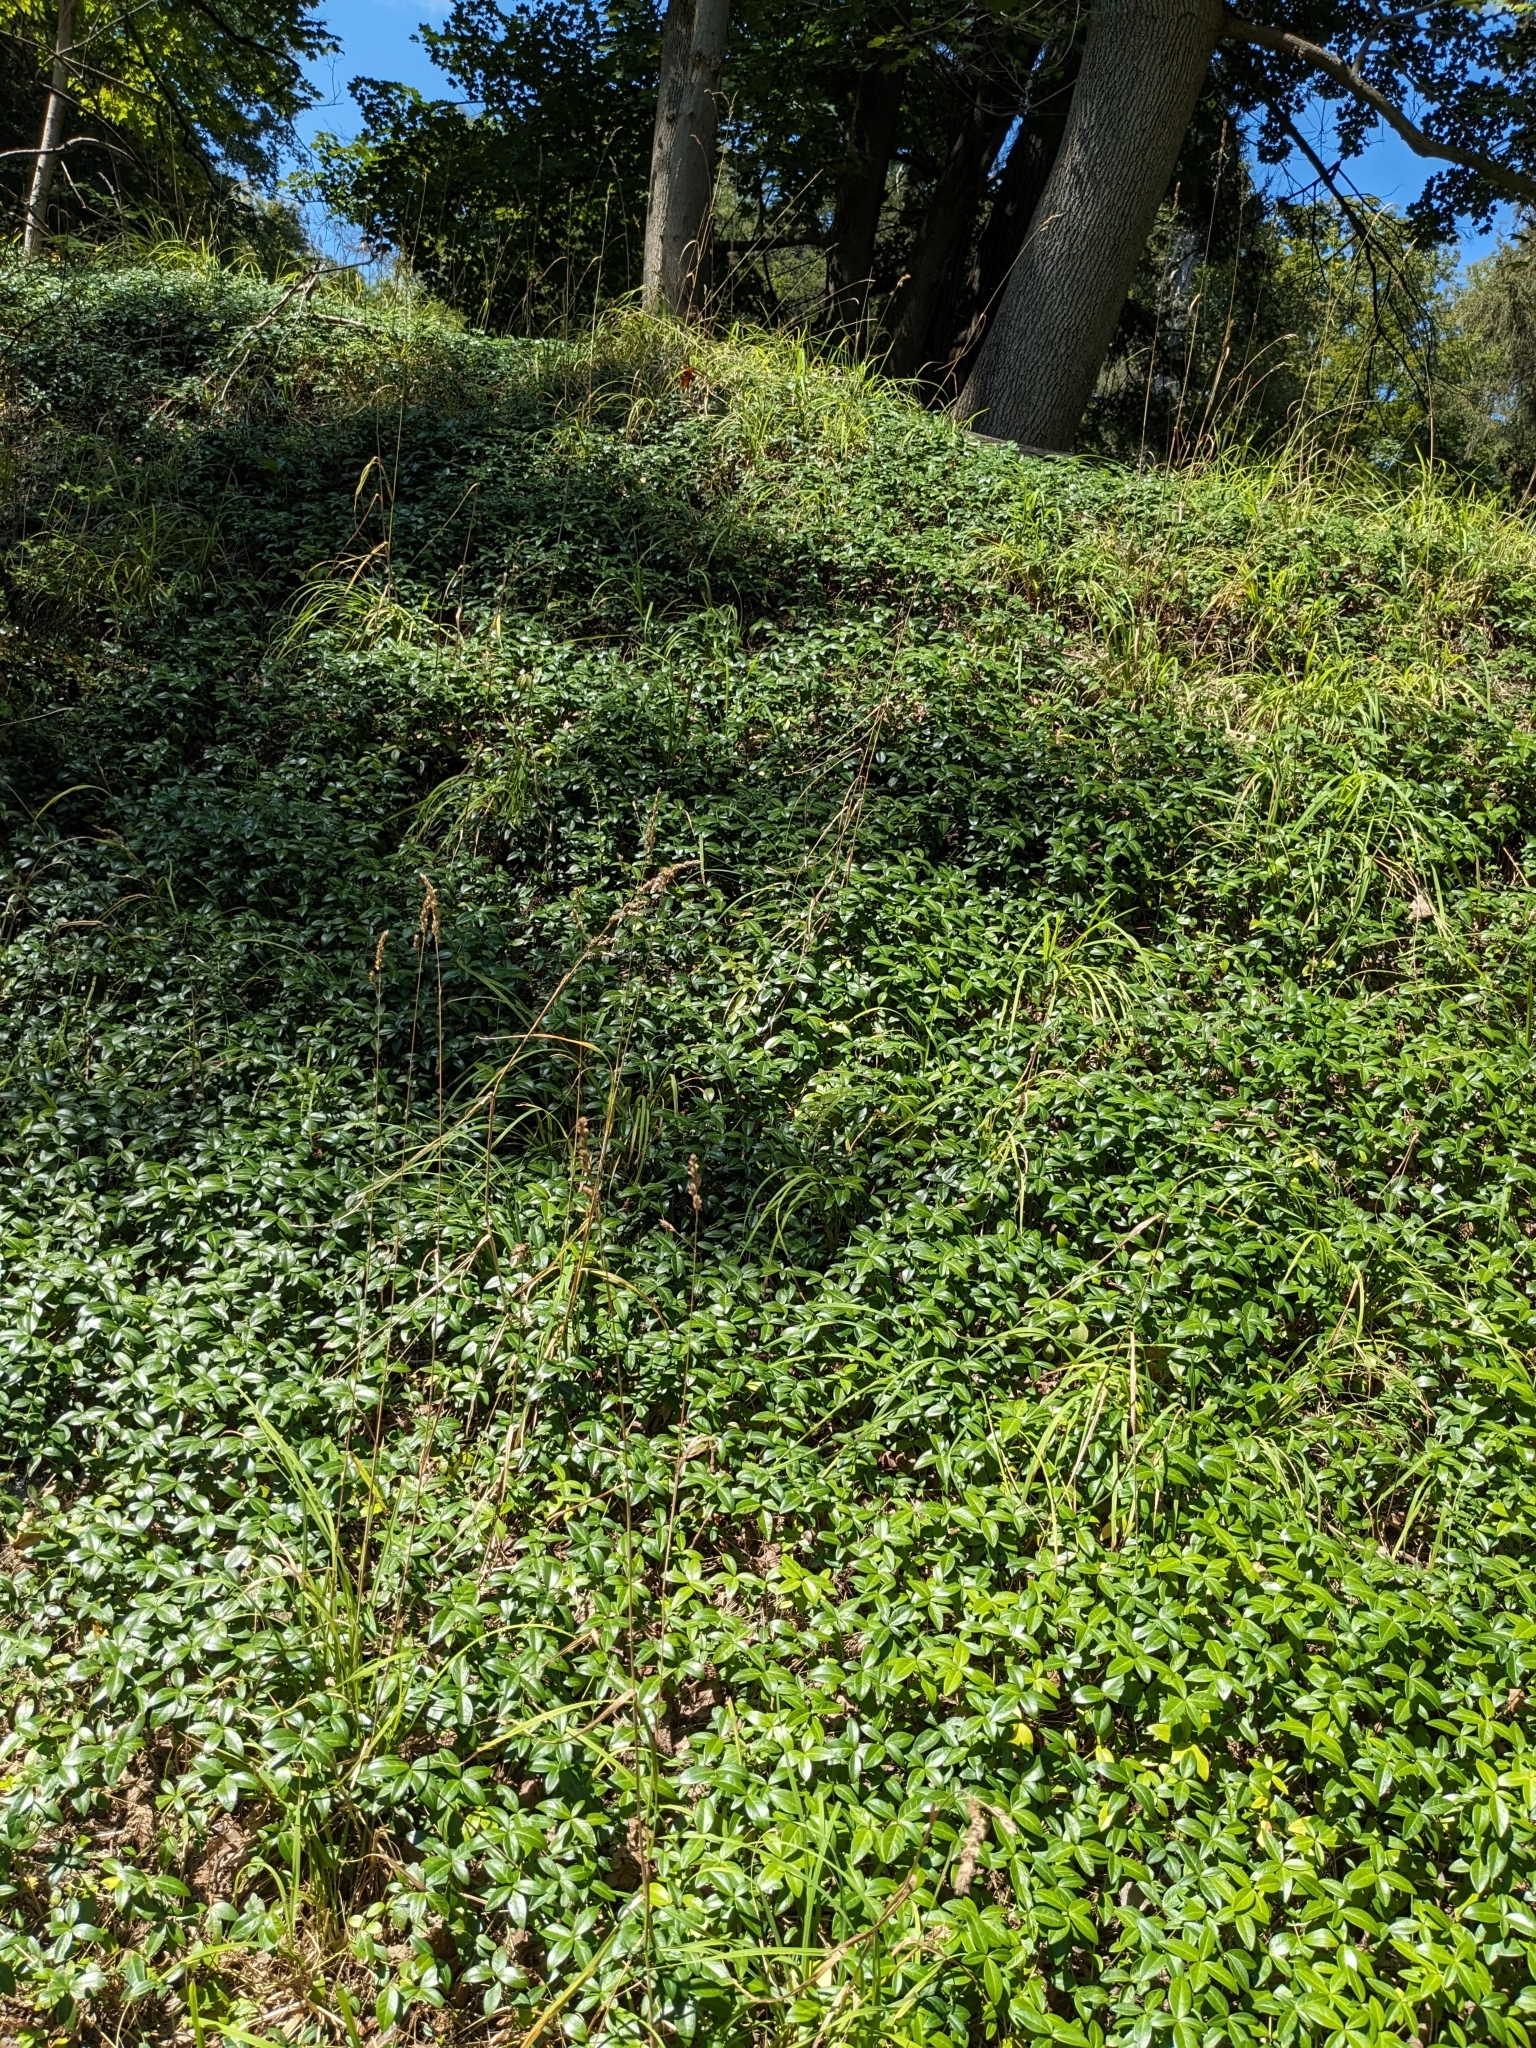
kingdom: Plantae
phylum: Tracheophyta
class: Magnoliopsida
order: Gentianales
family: Apocynaceae
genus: Vinca
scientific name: Vinca minor
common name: Lesser periwinkle
